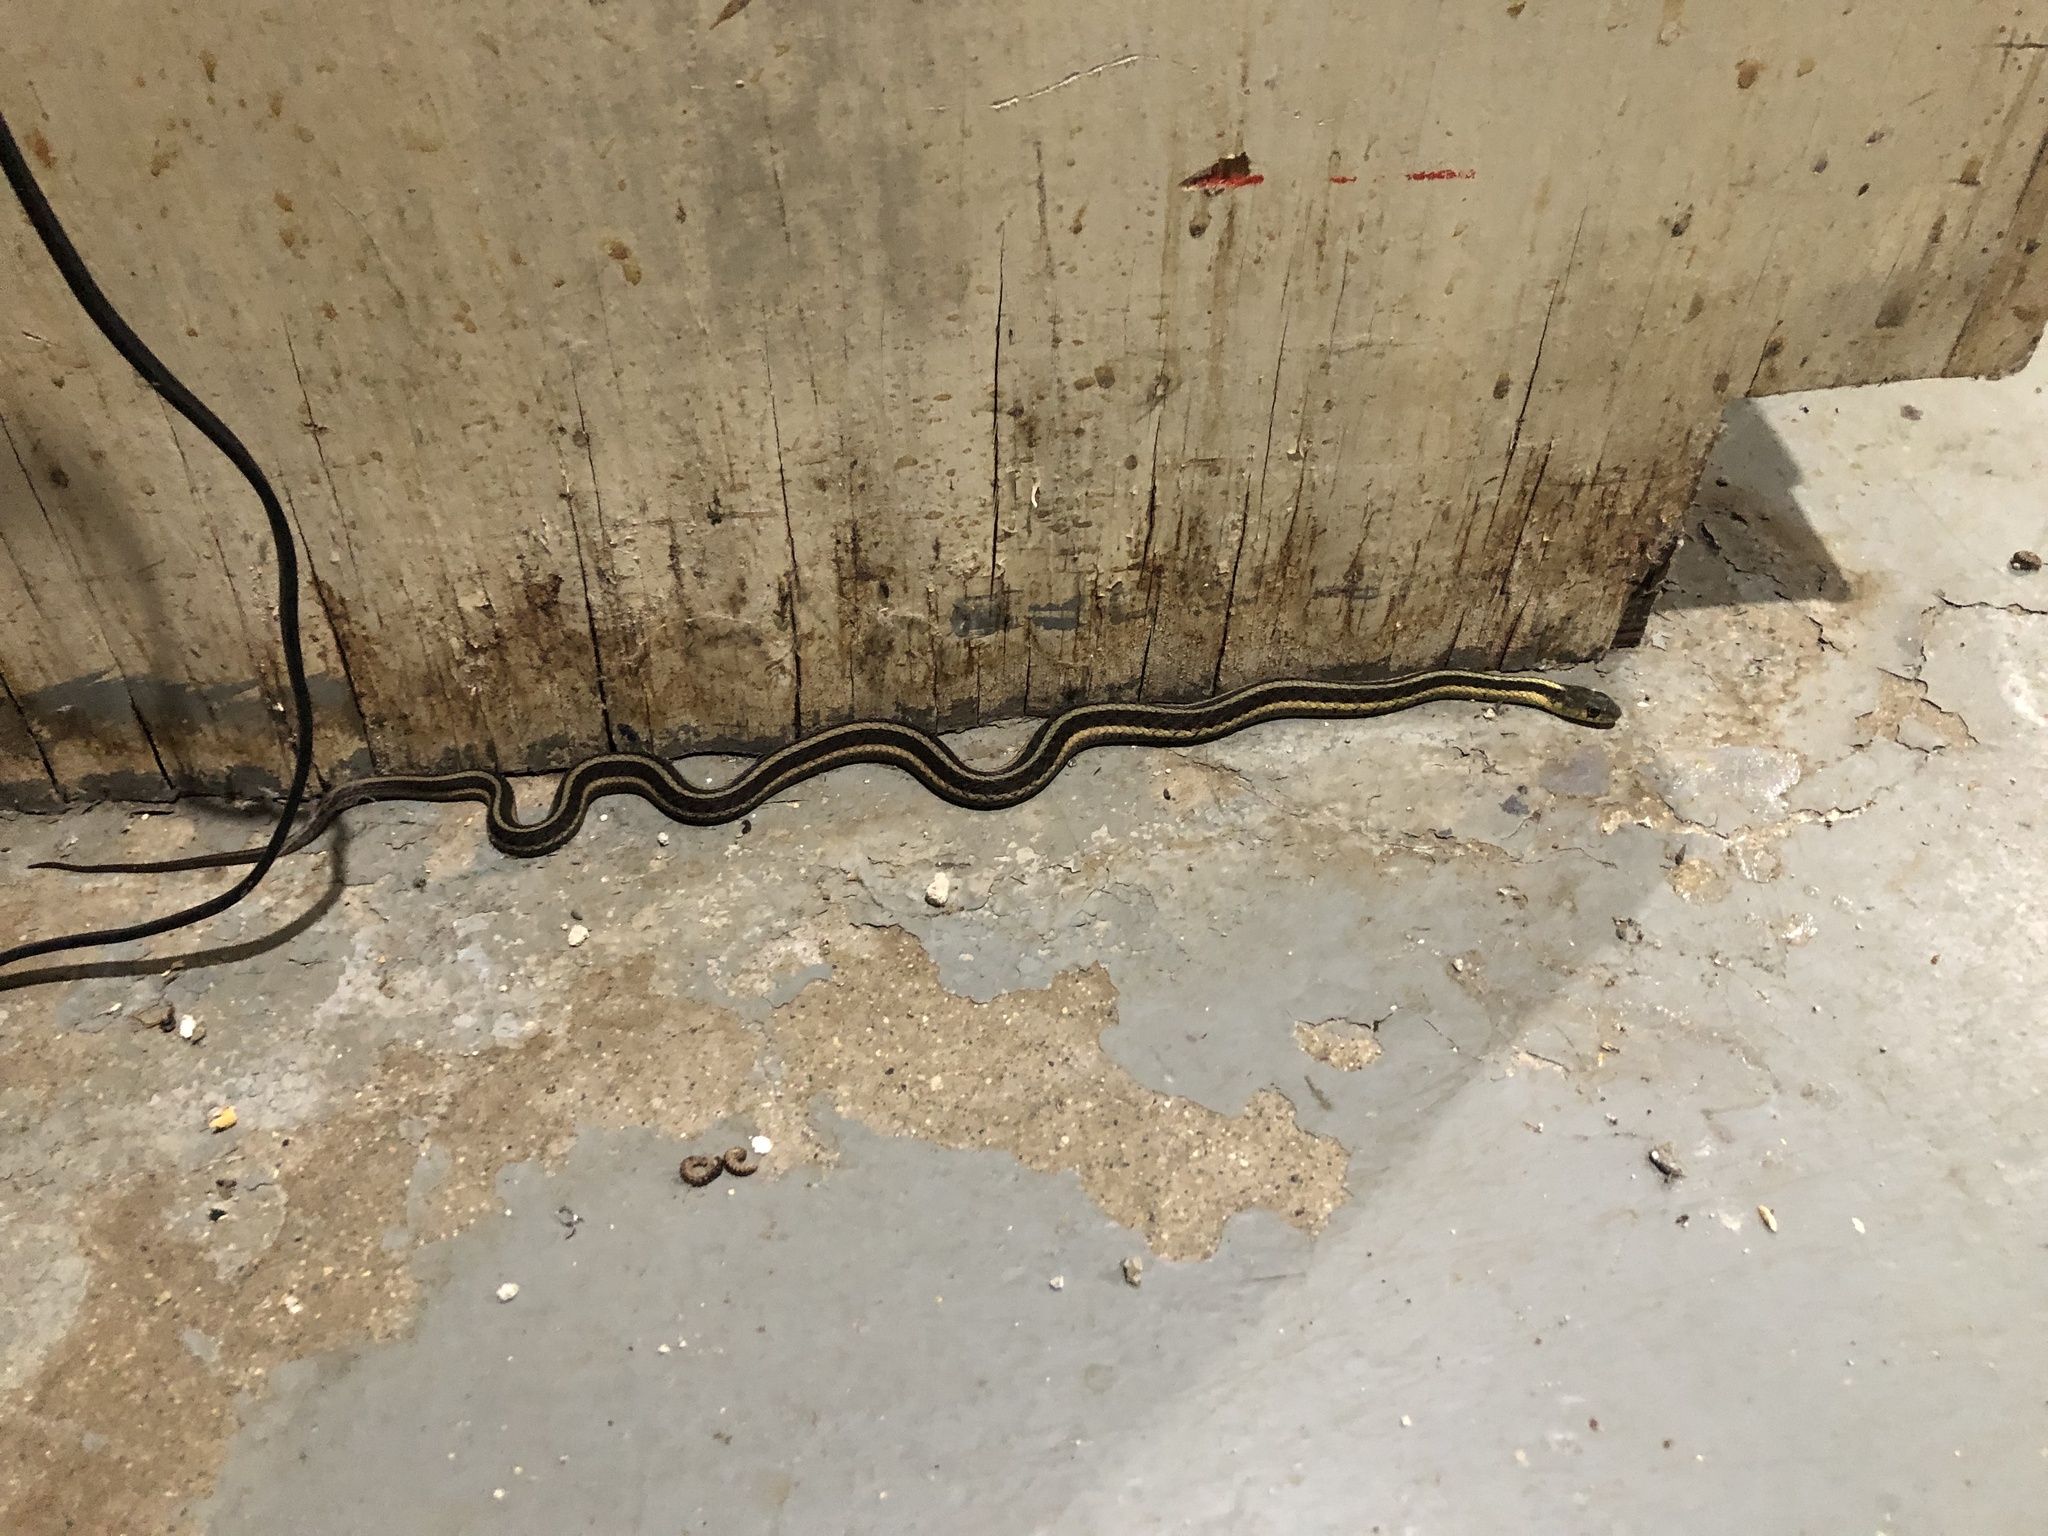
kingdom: Animalia
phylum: Chordata
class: Squamata
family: Colubridae
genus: Thamnophis
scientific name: Thamnophis sirtalis
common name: Common garter snake
